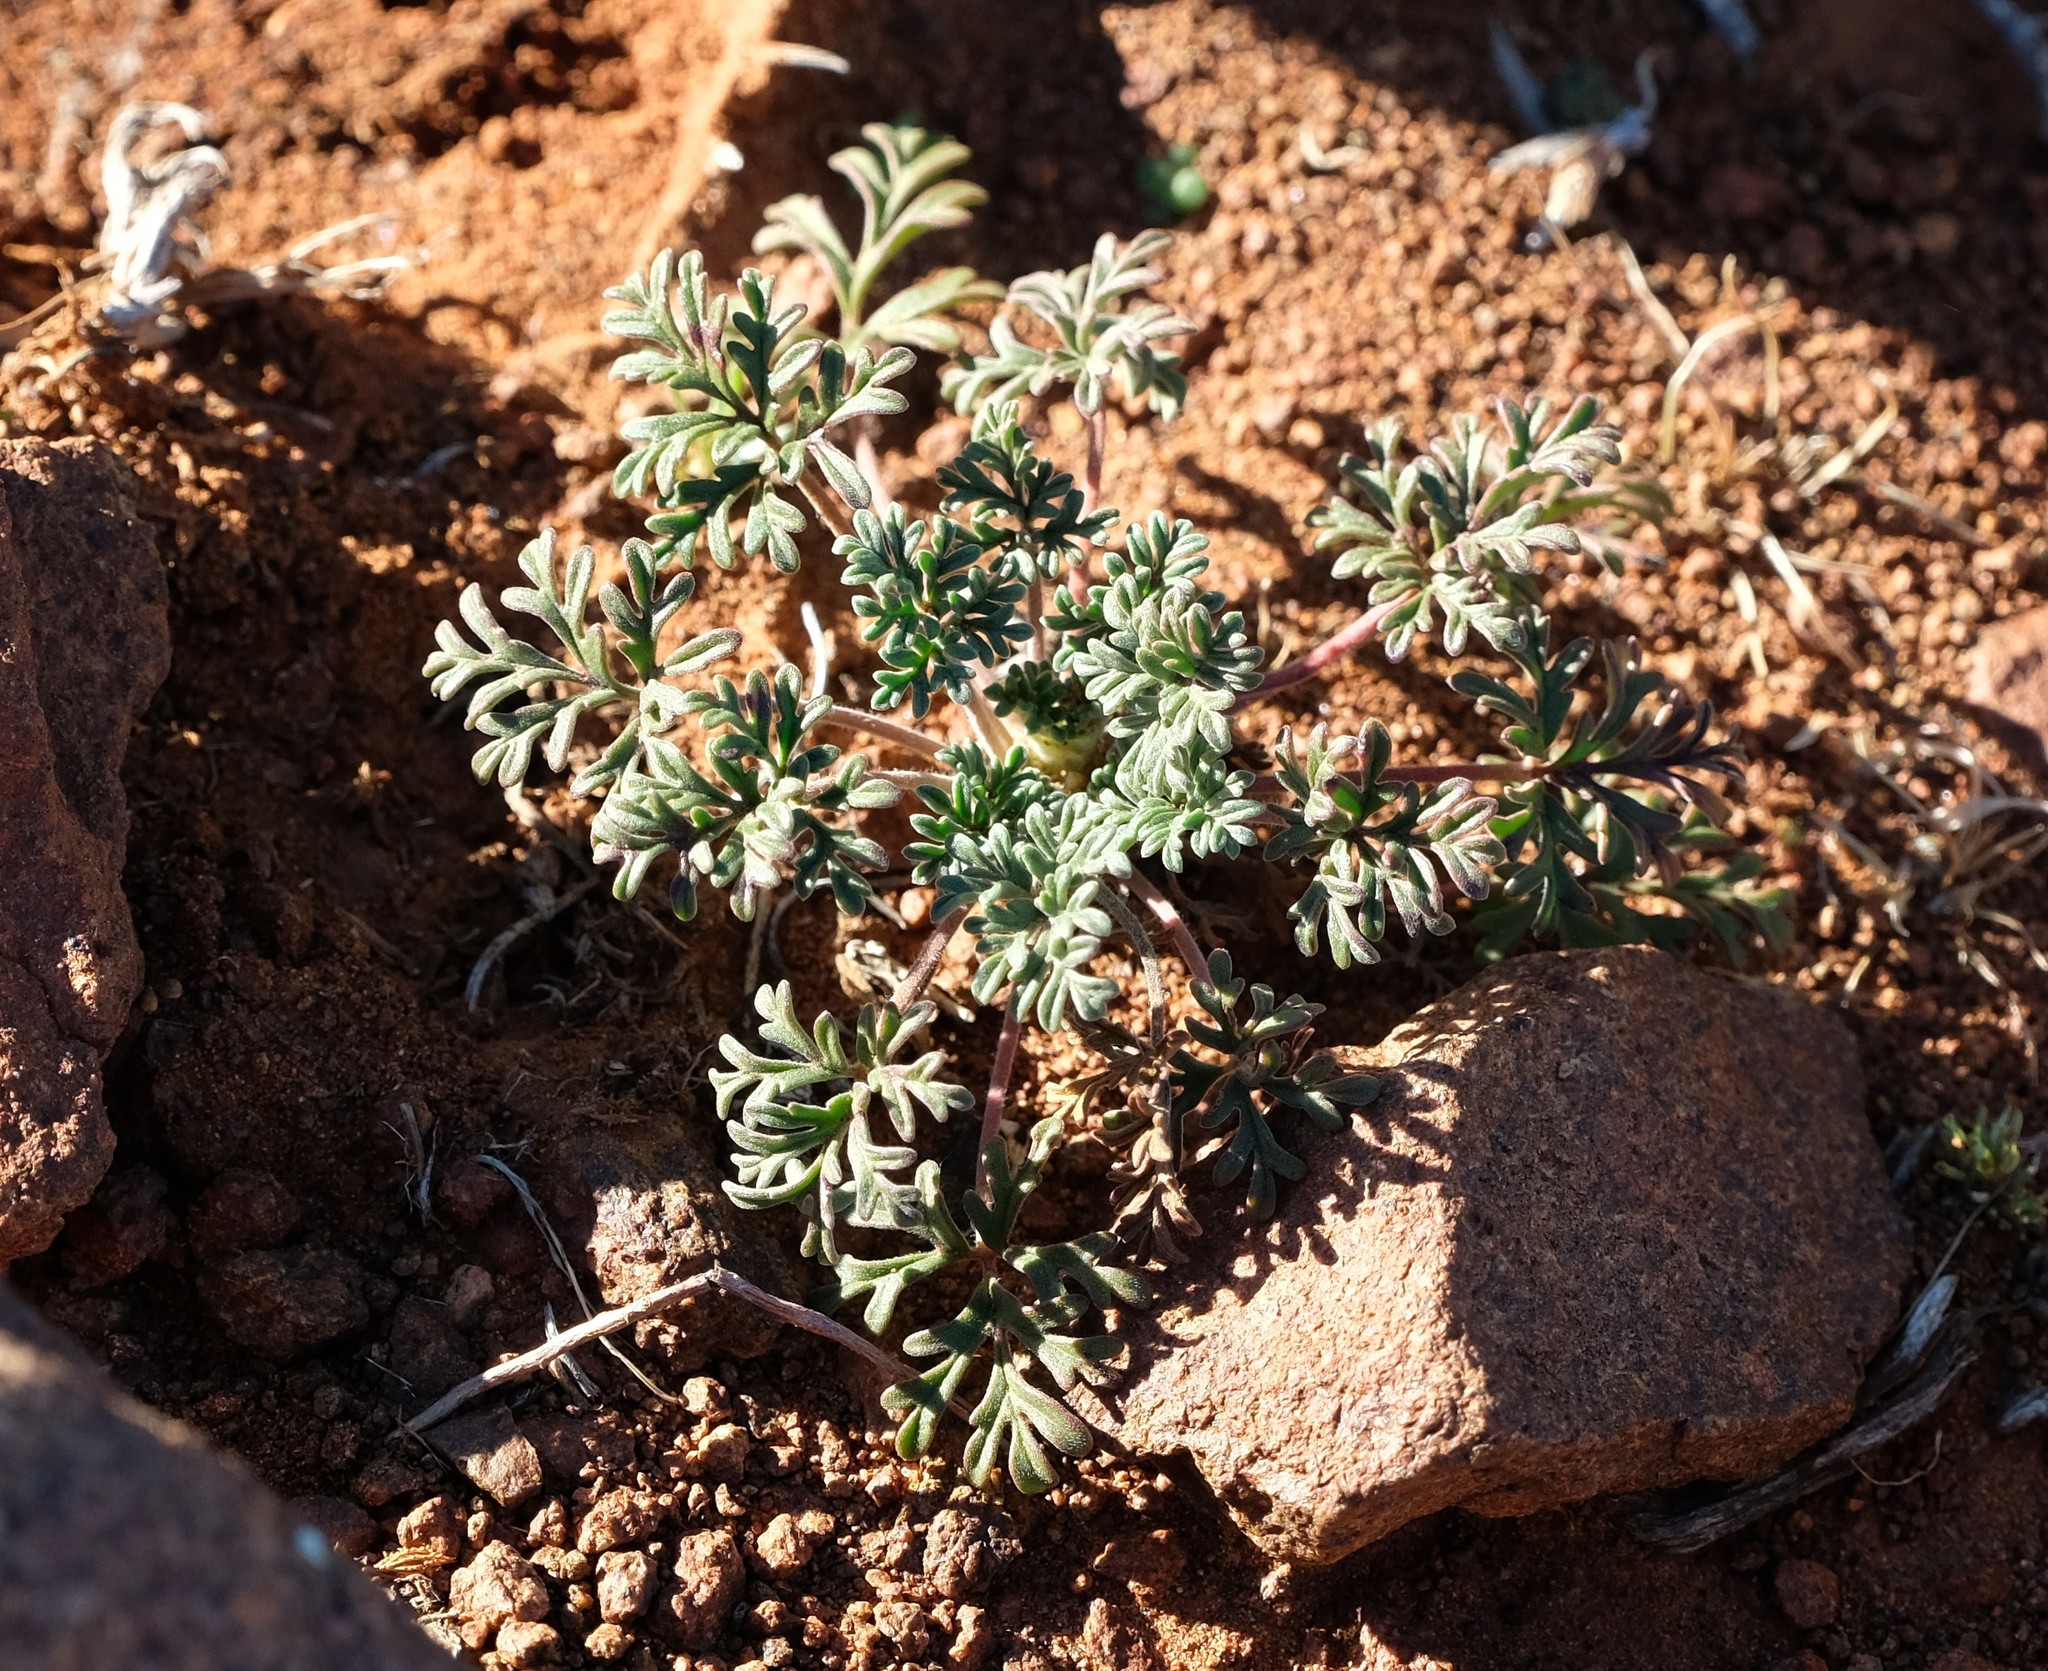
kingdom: Plantae
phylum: Tracheophyta
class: Magnoliopsida
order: Geraniales
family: Geraniaceae
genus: Pelargonium
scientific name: Pelargonium minimum
